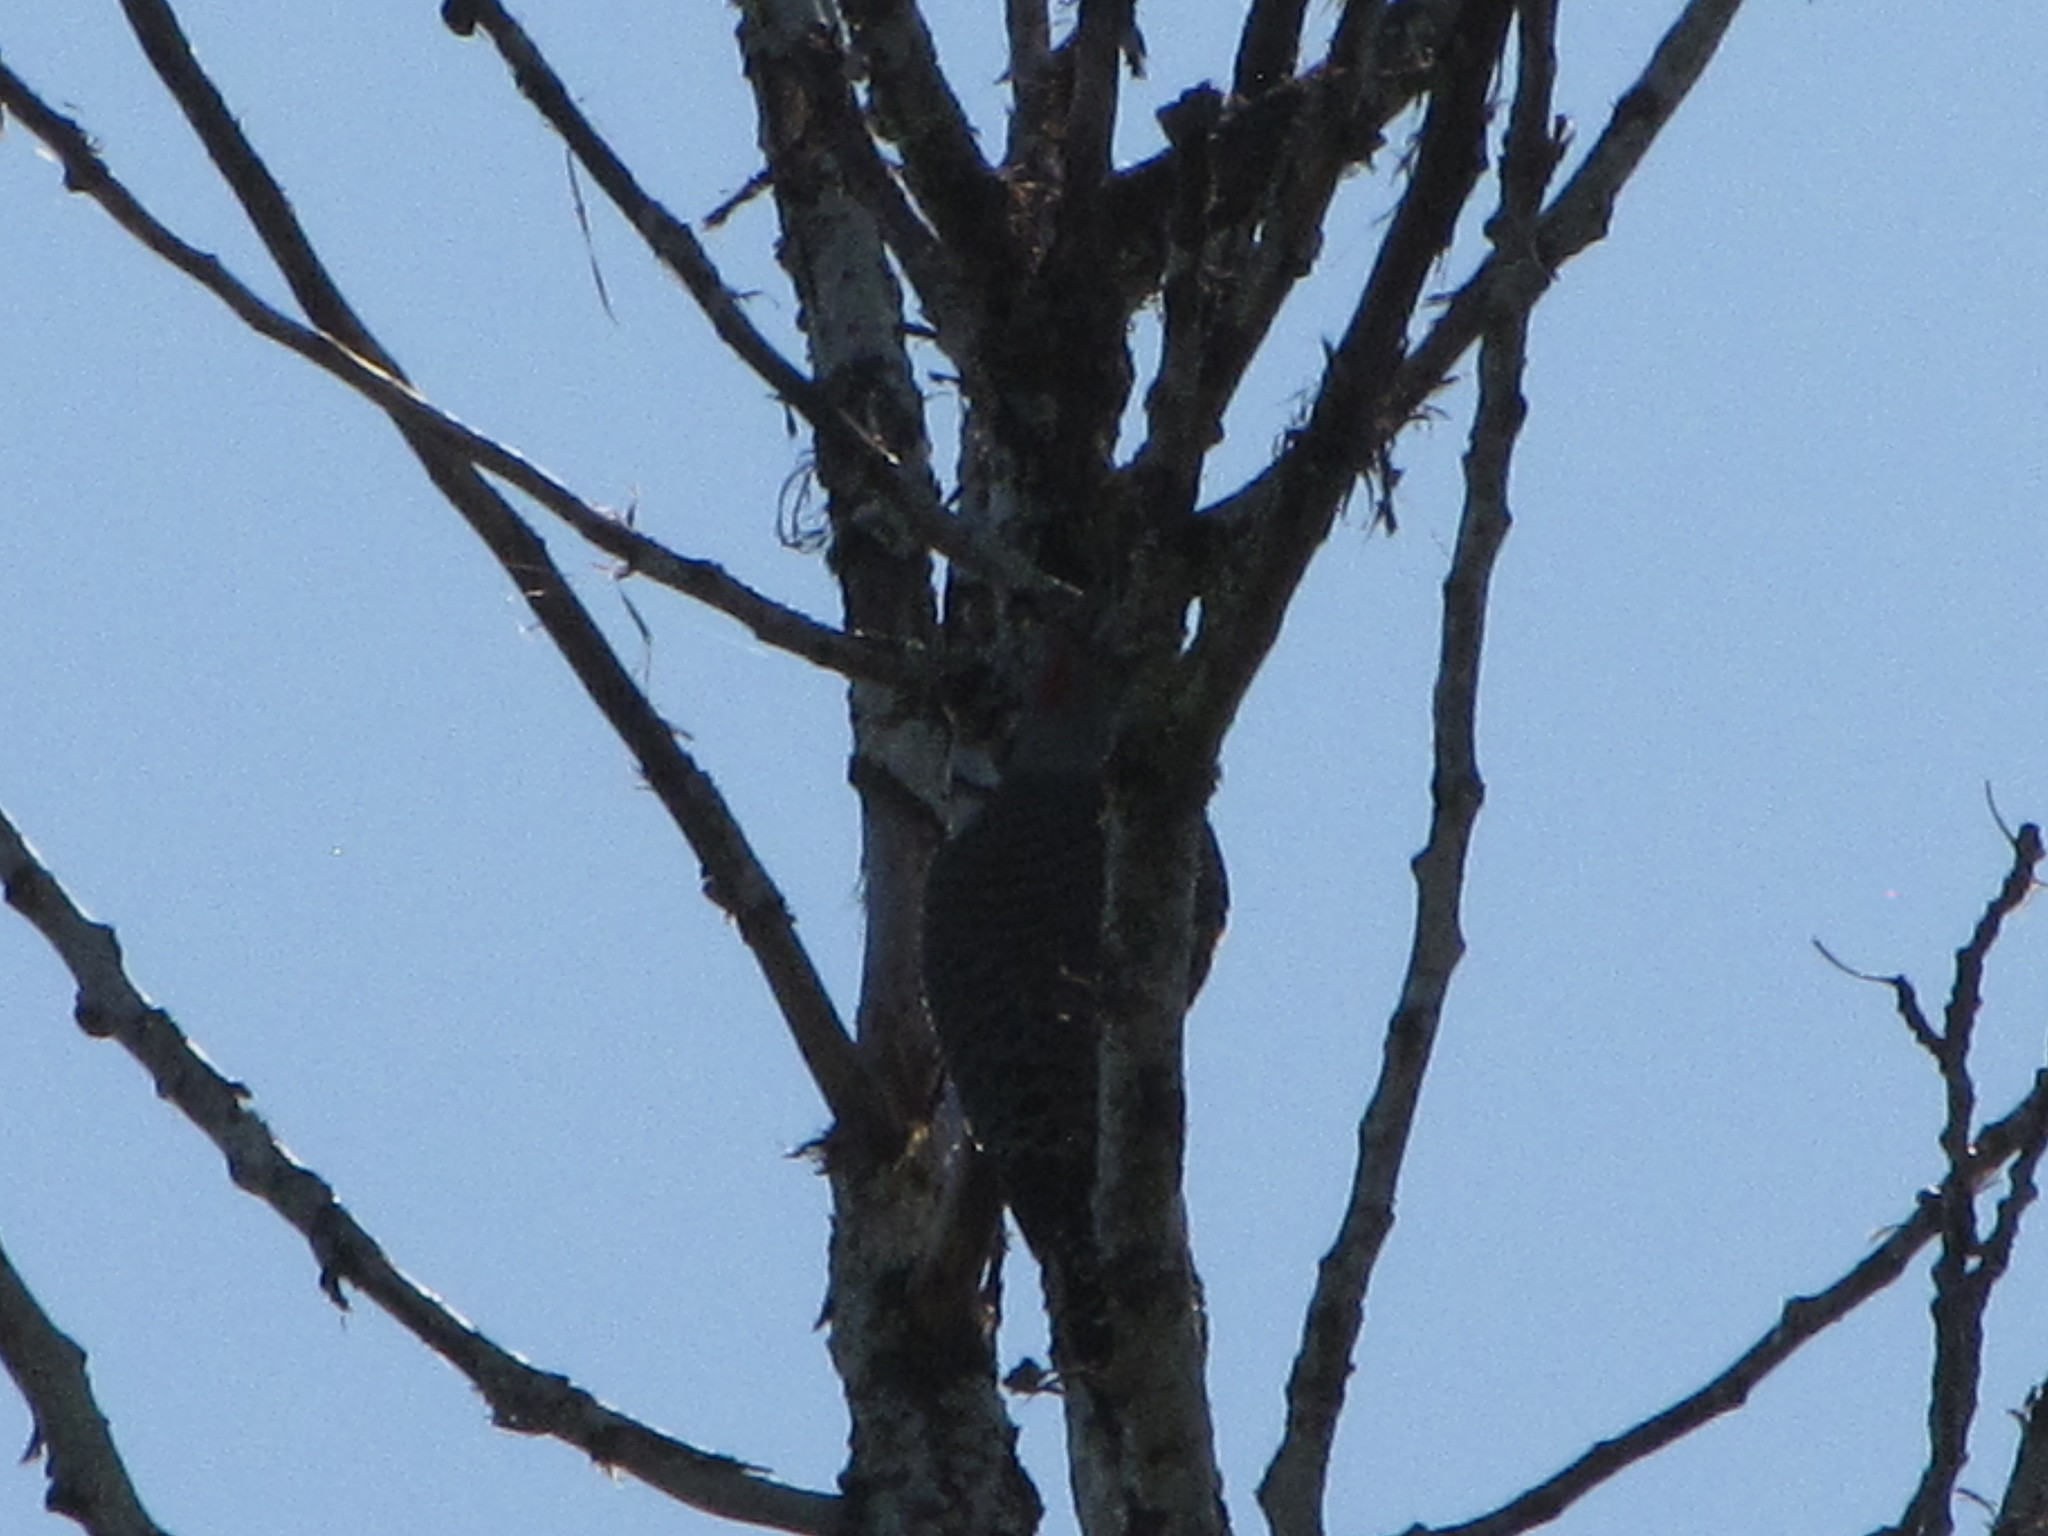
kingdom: Animalia
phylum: Chordata
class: Aves
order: Piciformes
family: Picidae
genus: Colaptes
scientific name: Colaptes auratus
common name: Northern flicker
